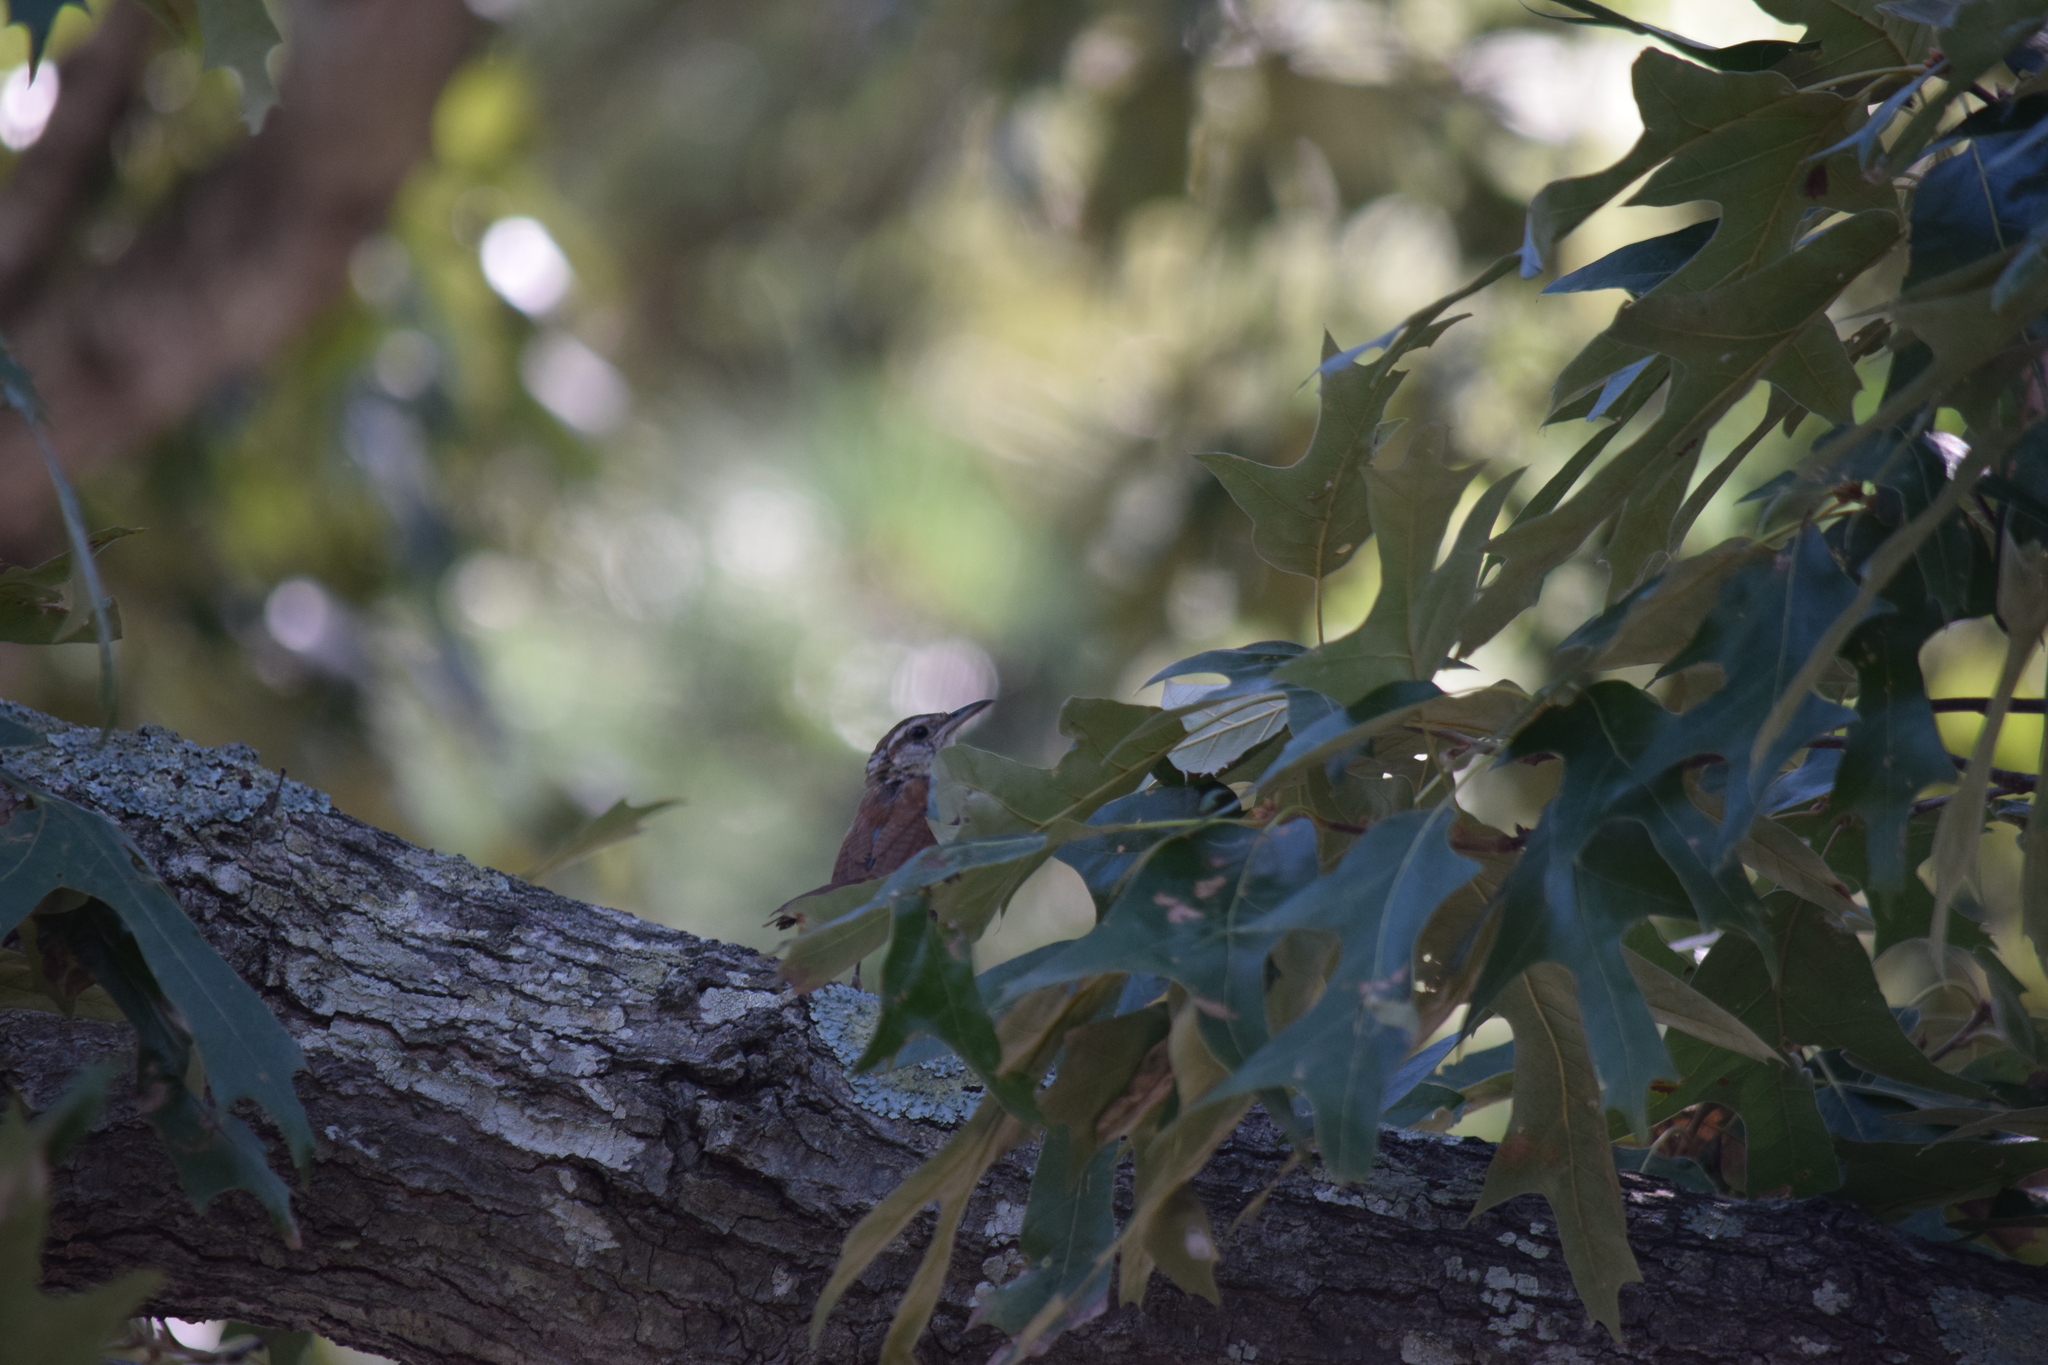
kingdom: Animalia
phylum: Chordata
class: Aves
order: Passeriformes
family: Troglodytidae
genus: Thryothorus
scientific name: Thryothorus ludovicianus
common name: Carolina wren
